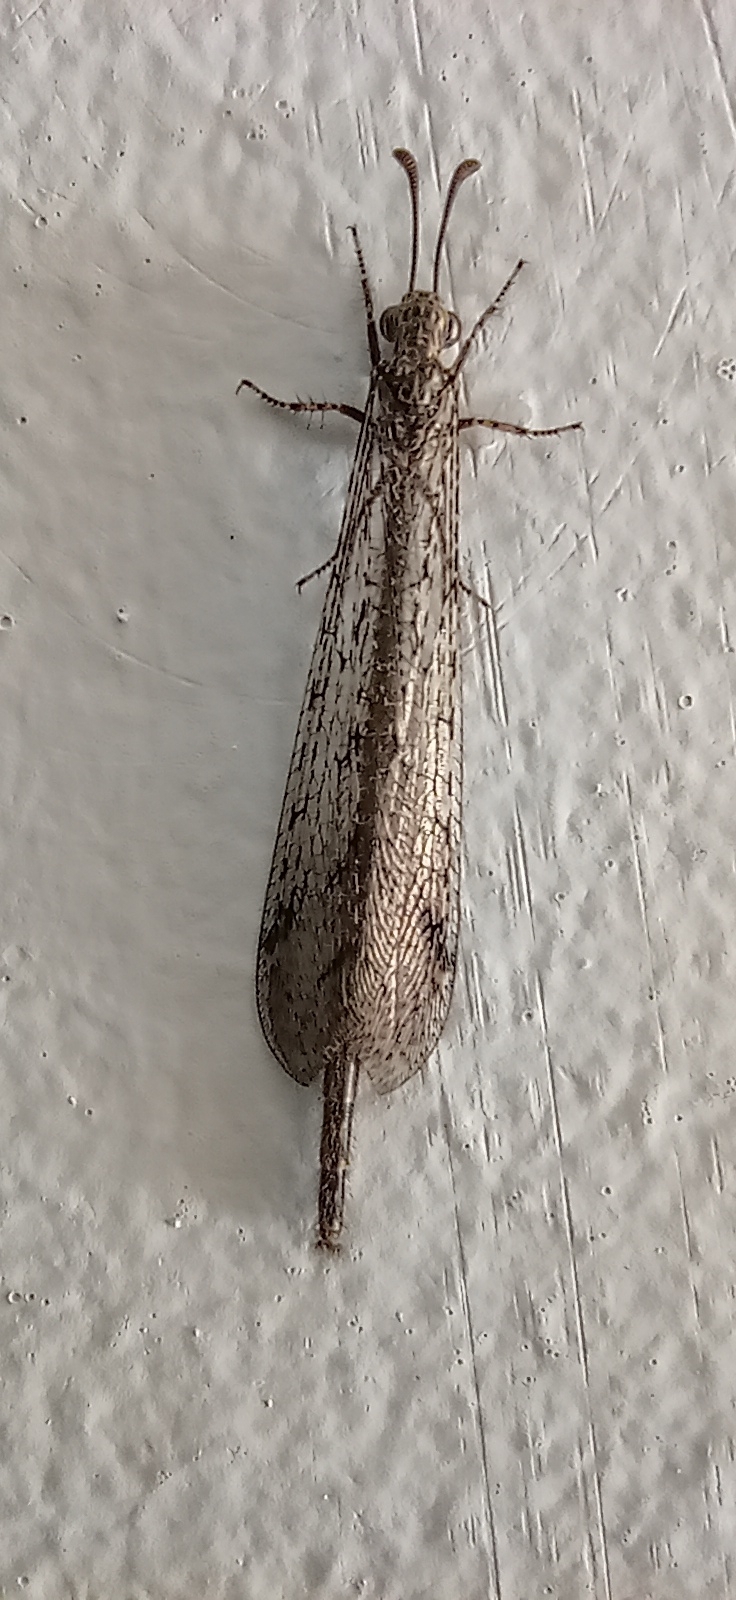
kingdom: Animalia
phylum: Arthropoda
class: Insecta
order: Neuroptera
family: Myrmeleontidae
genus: Ameromyia
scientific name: Ameromyia strigosa
